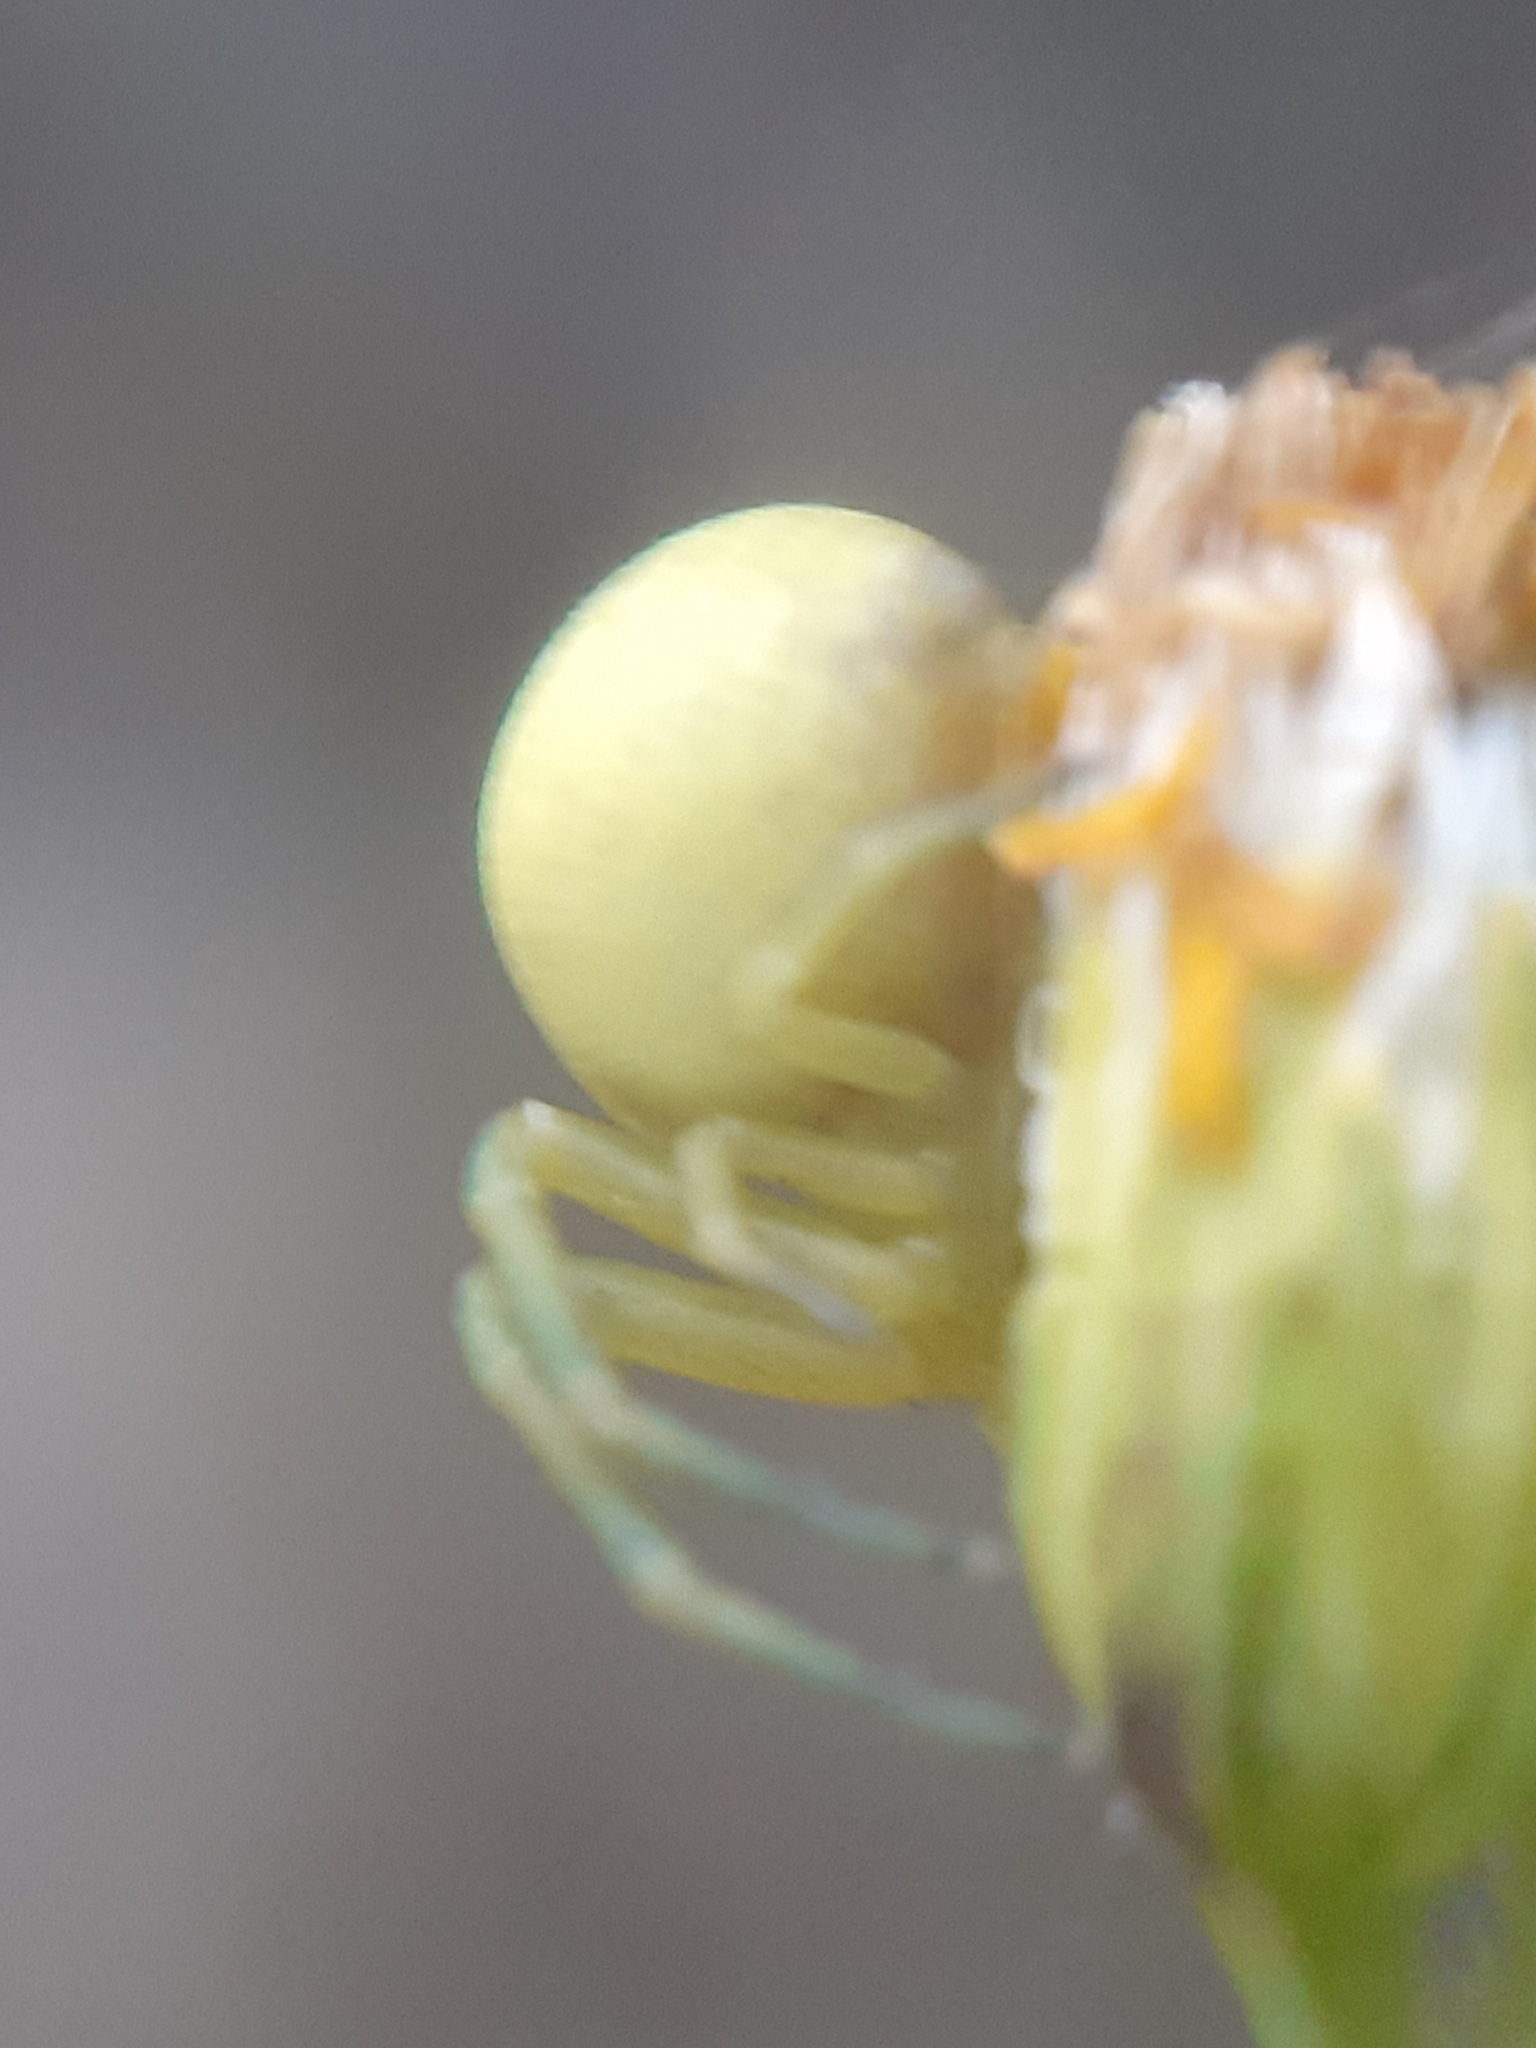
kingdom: Animalia
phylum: Arthropoda
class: Arachnida
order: Araneae
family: Thomisidae
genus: Misumena
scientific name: Misumena vatia
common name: Goldenrod crab spider
